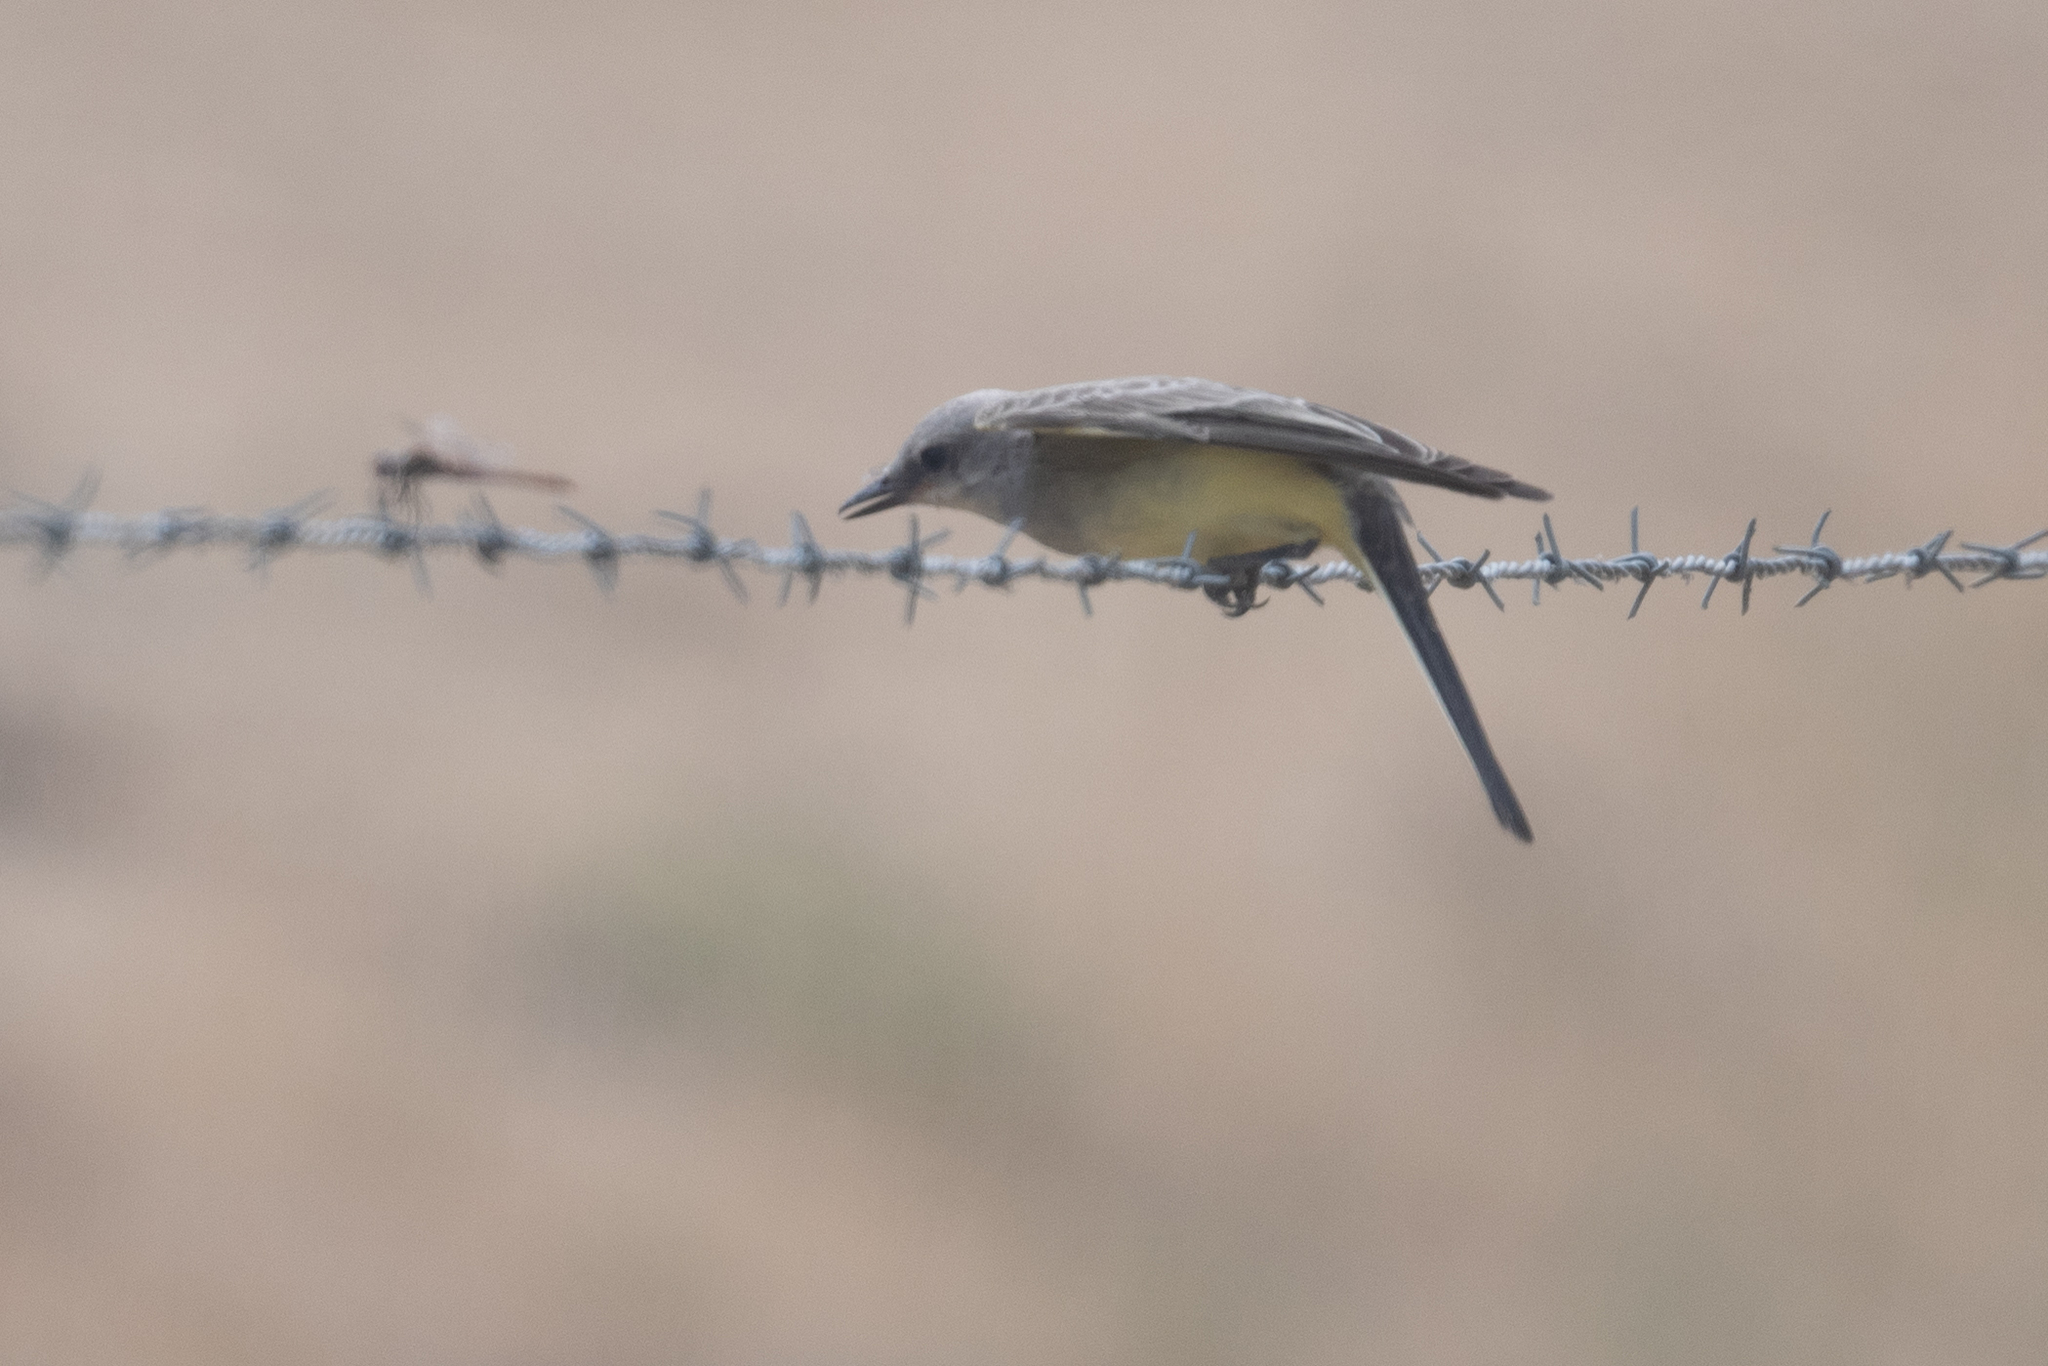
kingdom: Animalia
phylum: Chordata
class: Aves
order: Passeriformes
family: Tyrannidae
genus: Tyrannus
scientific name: Tyrannus verticalis
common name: Western kingbird
